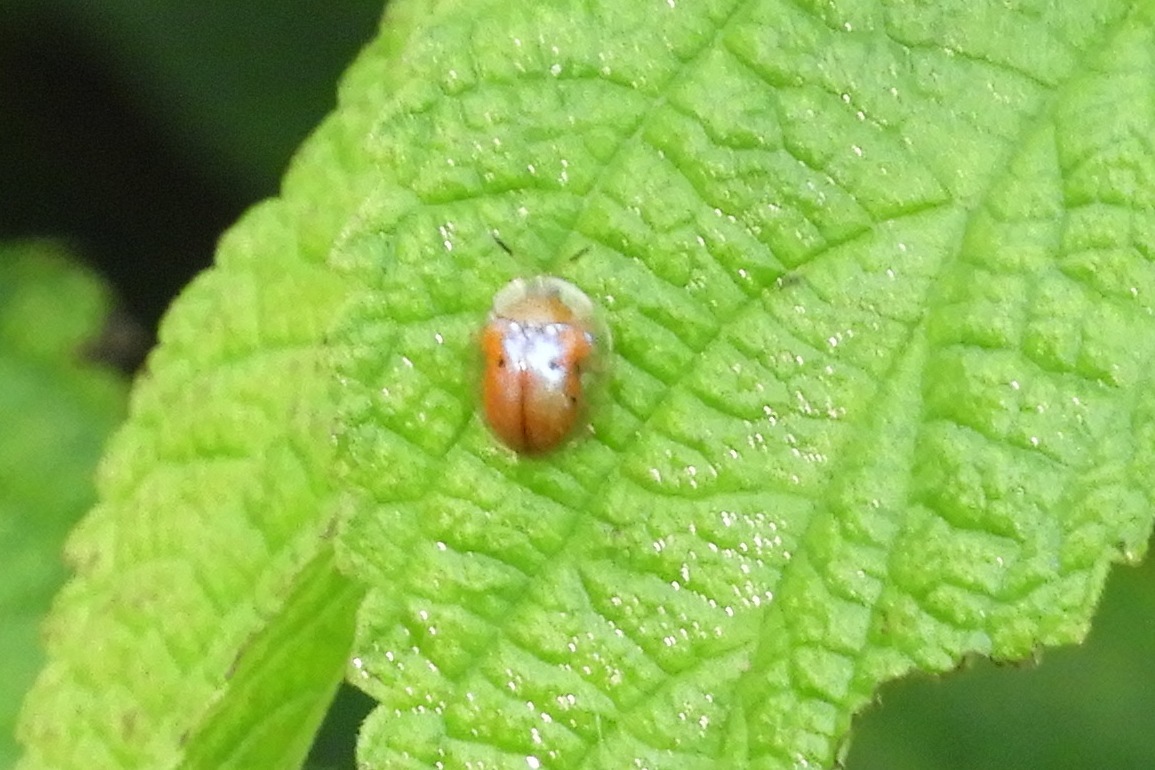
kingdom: Animalia
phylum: Arthropoda
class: Insecta
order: Coleoptera
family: Chrysomelidae
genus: Charidotella
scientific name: Charidotella sexpunctata
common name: Golden tortoise beetle
